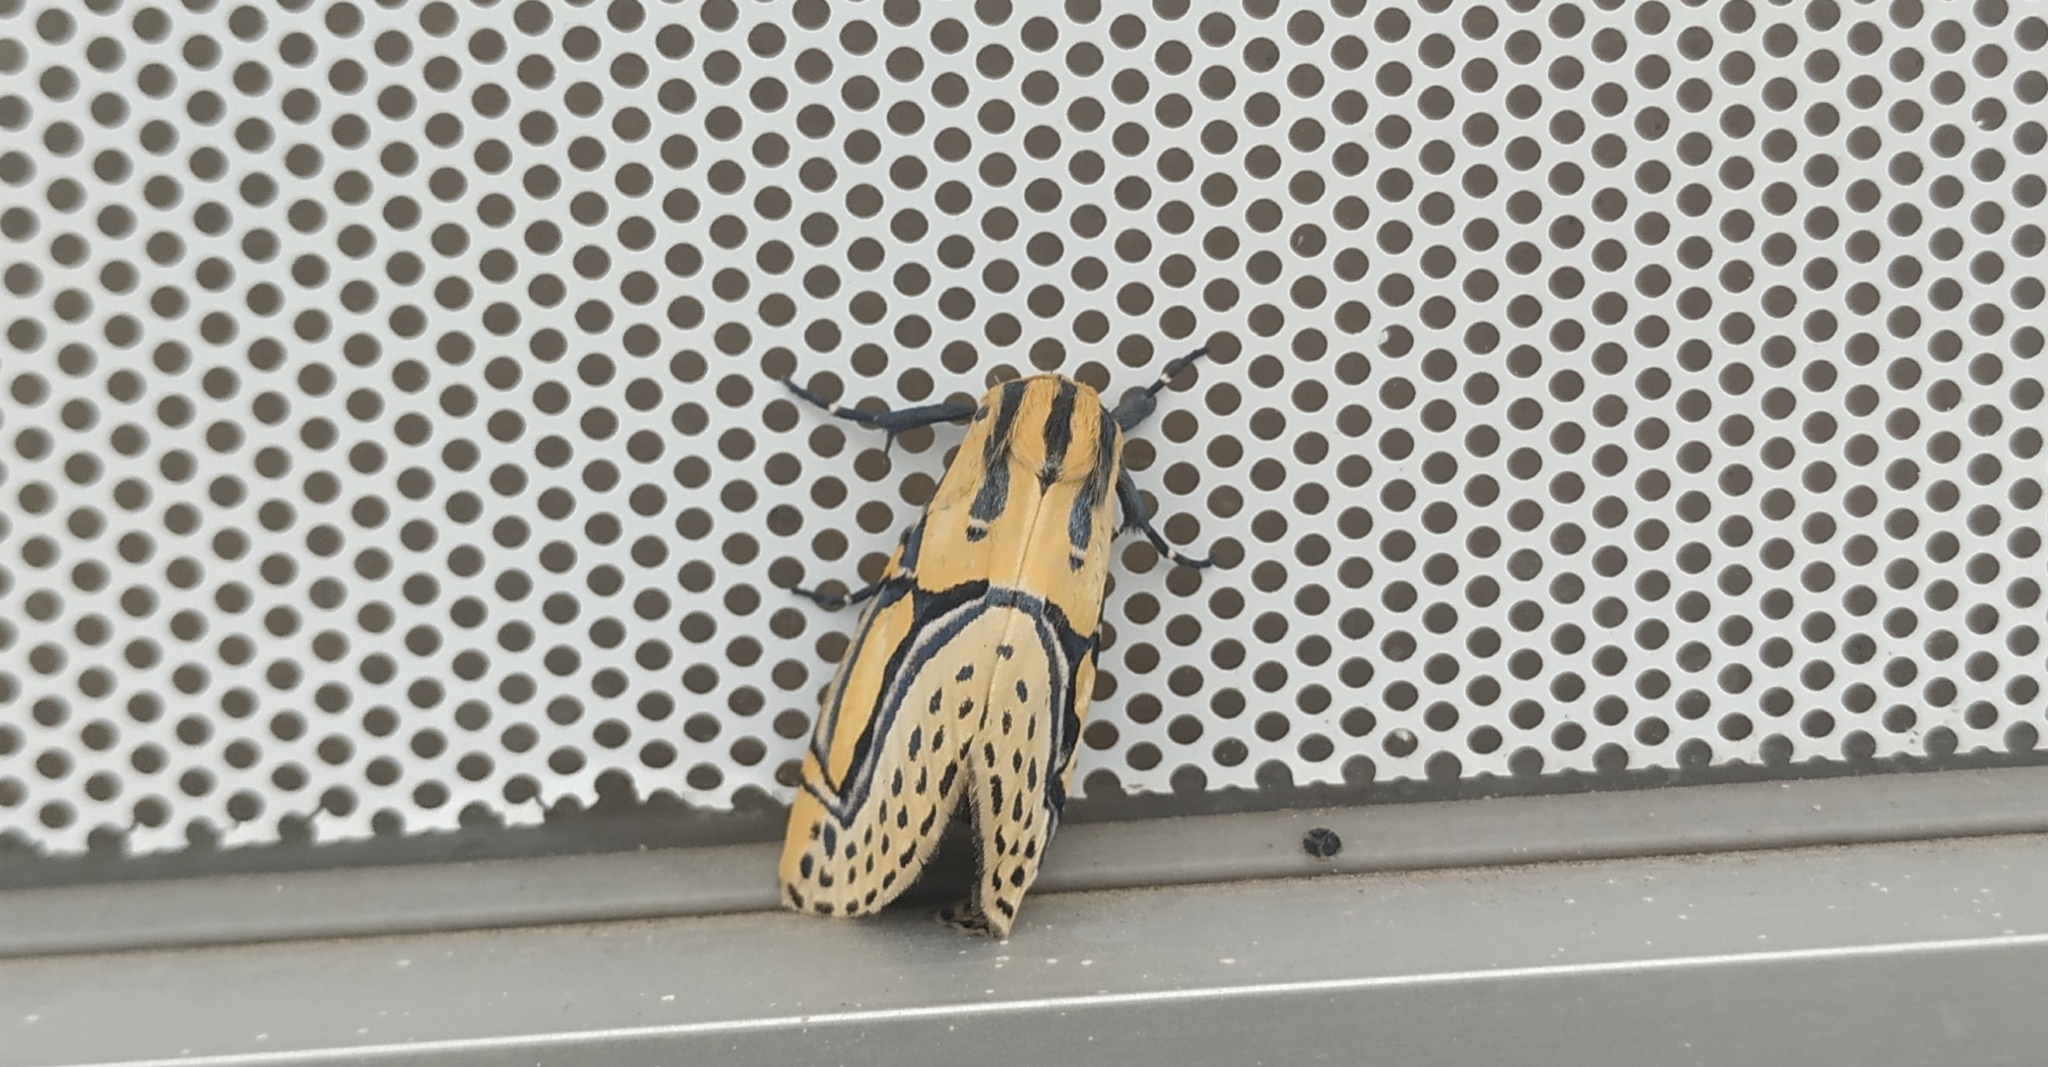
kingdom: Animalia
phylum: Arthropoda
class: Insecta
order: Lepidoptera
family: Erebidae
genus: Diphthera
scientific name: Diphthera festiva
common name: Hieroglyphic moth
